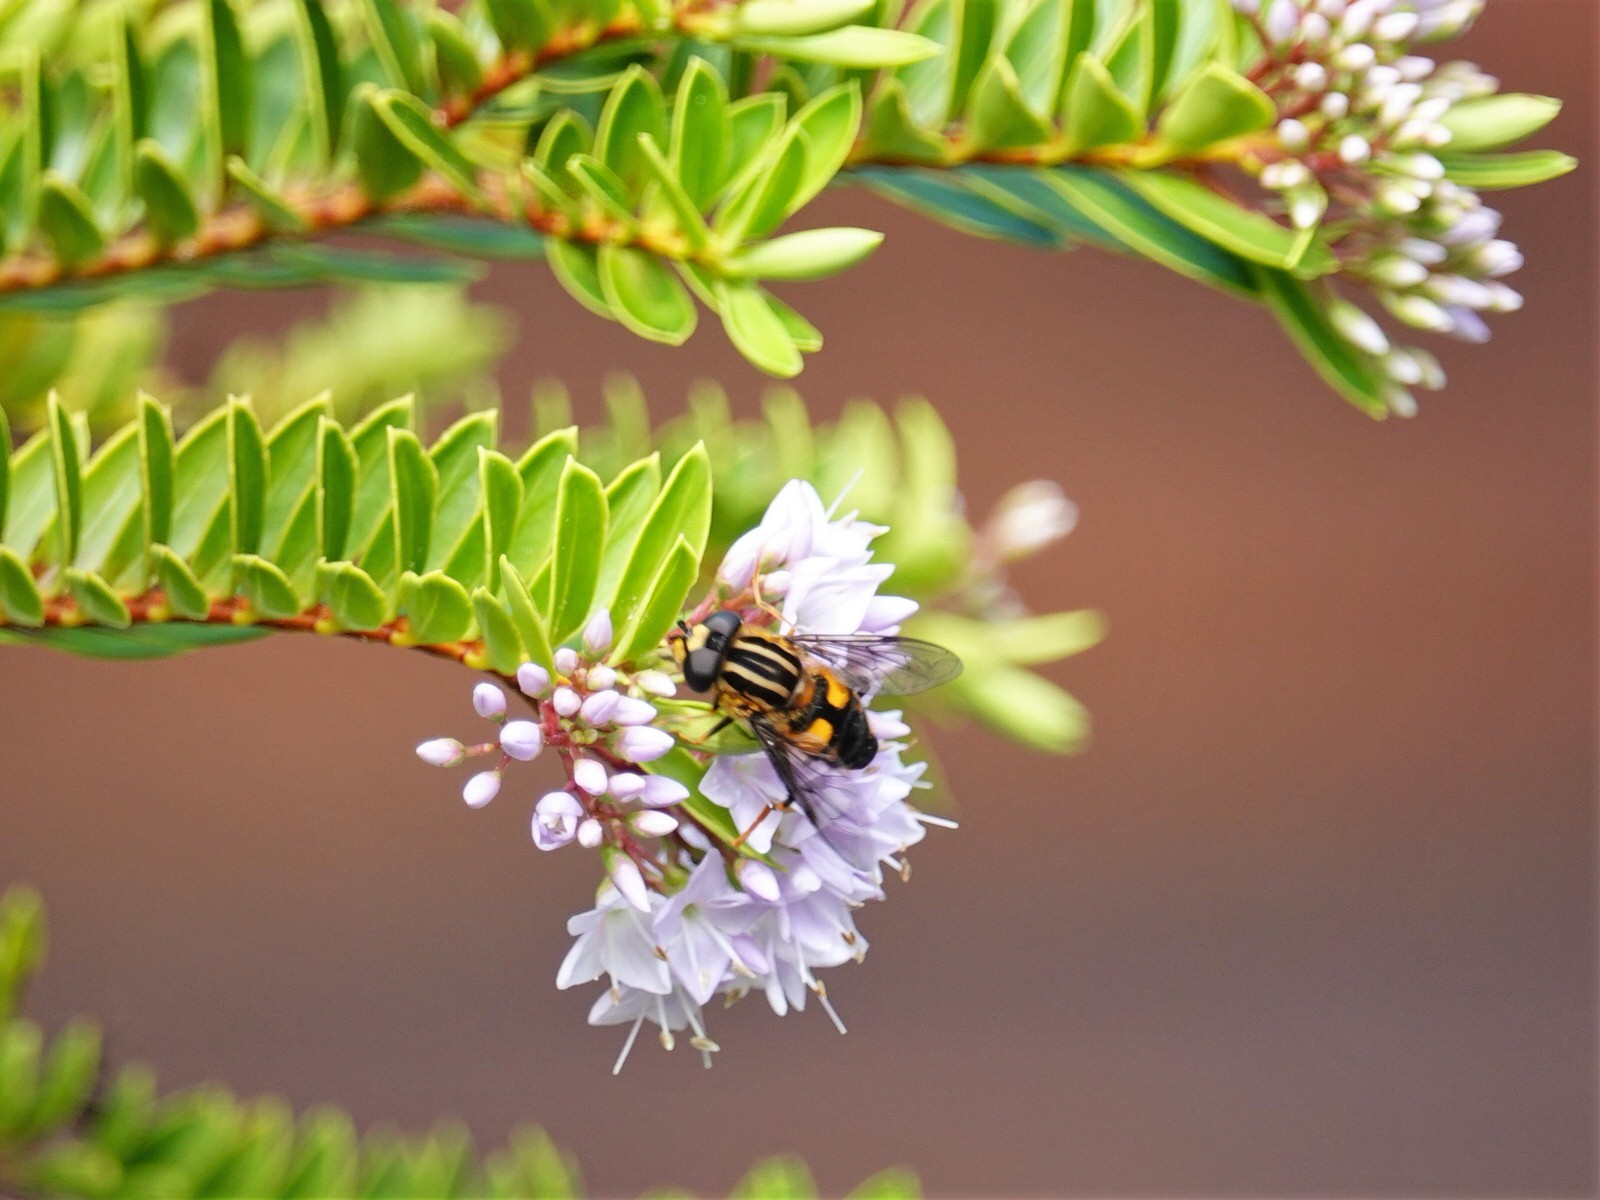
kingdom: Animalia
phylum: Arthropoda
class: Insecta
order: Diptera
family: Syrphidae
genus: Helophilus
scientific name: Helophilus antipodus
